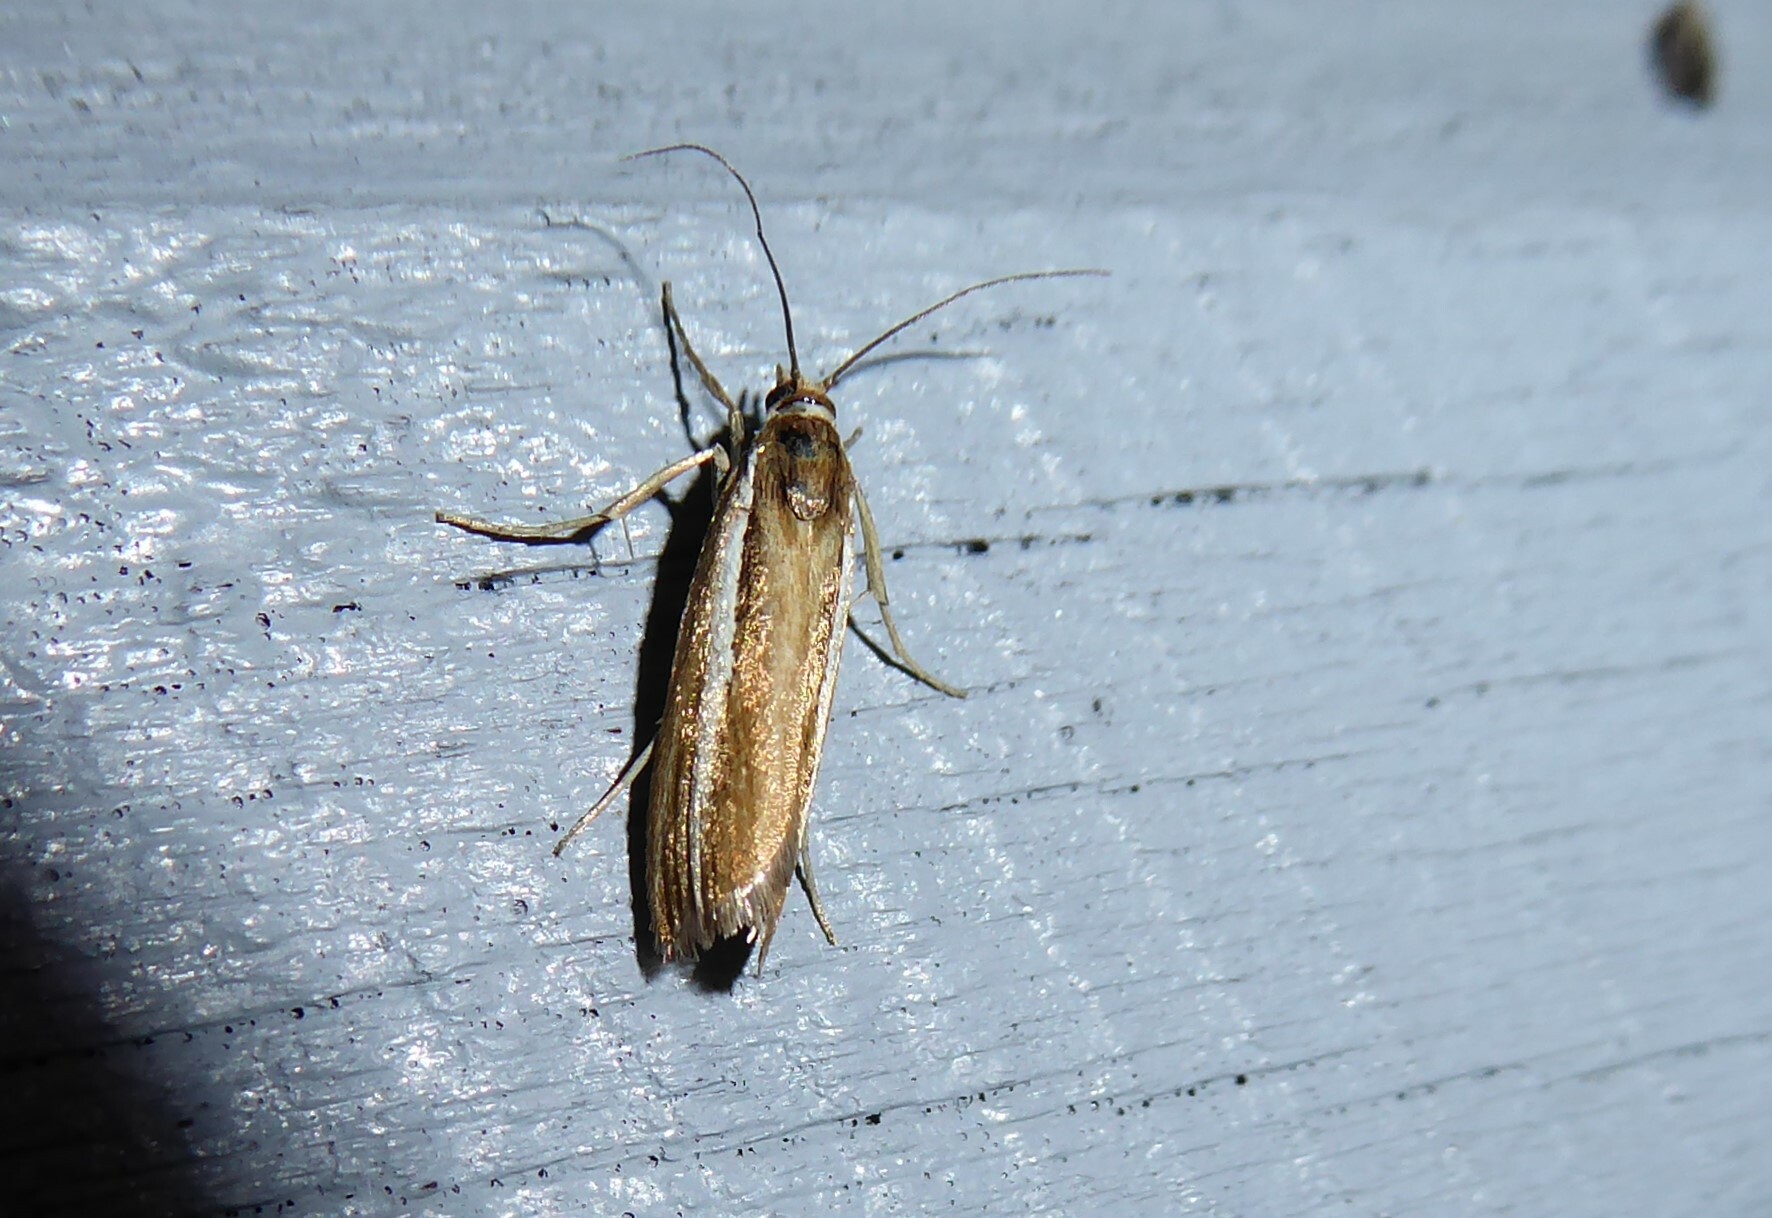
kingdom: Animalia
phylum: Arthropoda
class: Insecta
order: Lepidoptera
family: Crambidae
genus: Orocrambus
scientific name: Orocrambus melitastes
